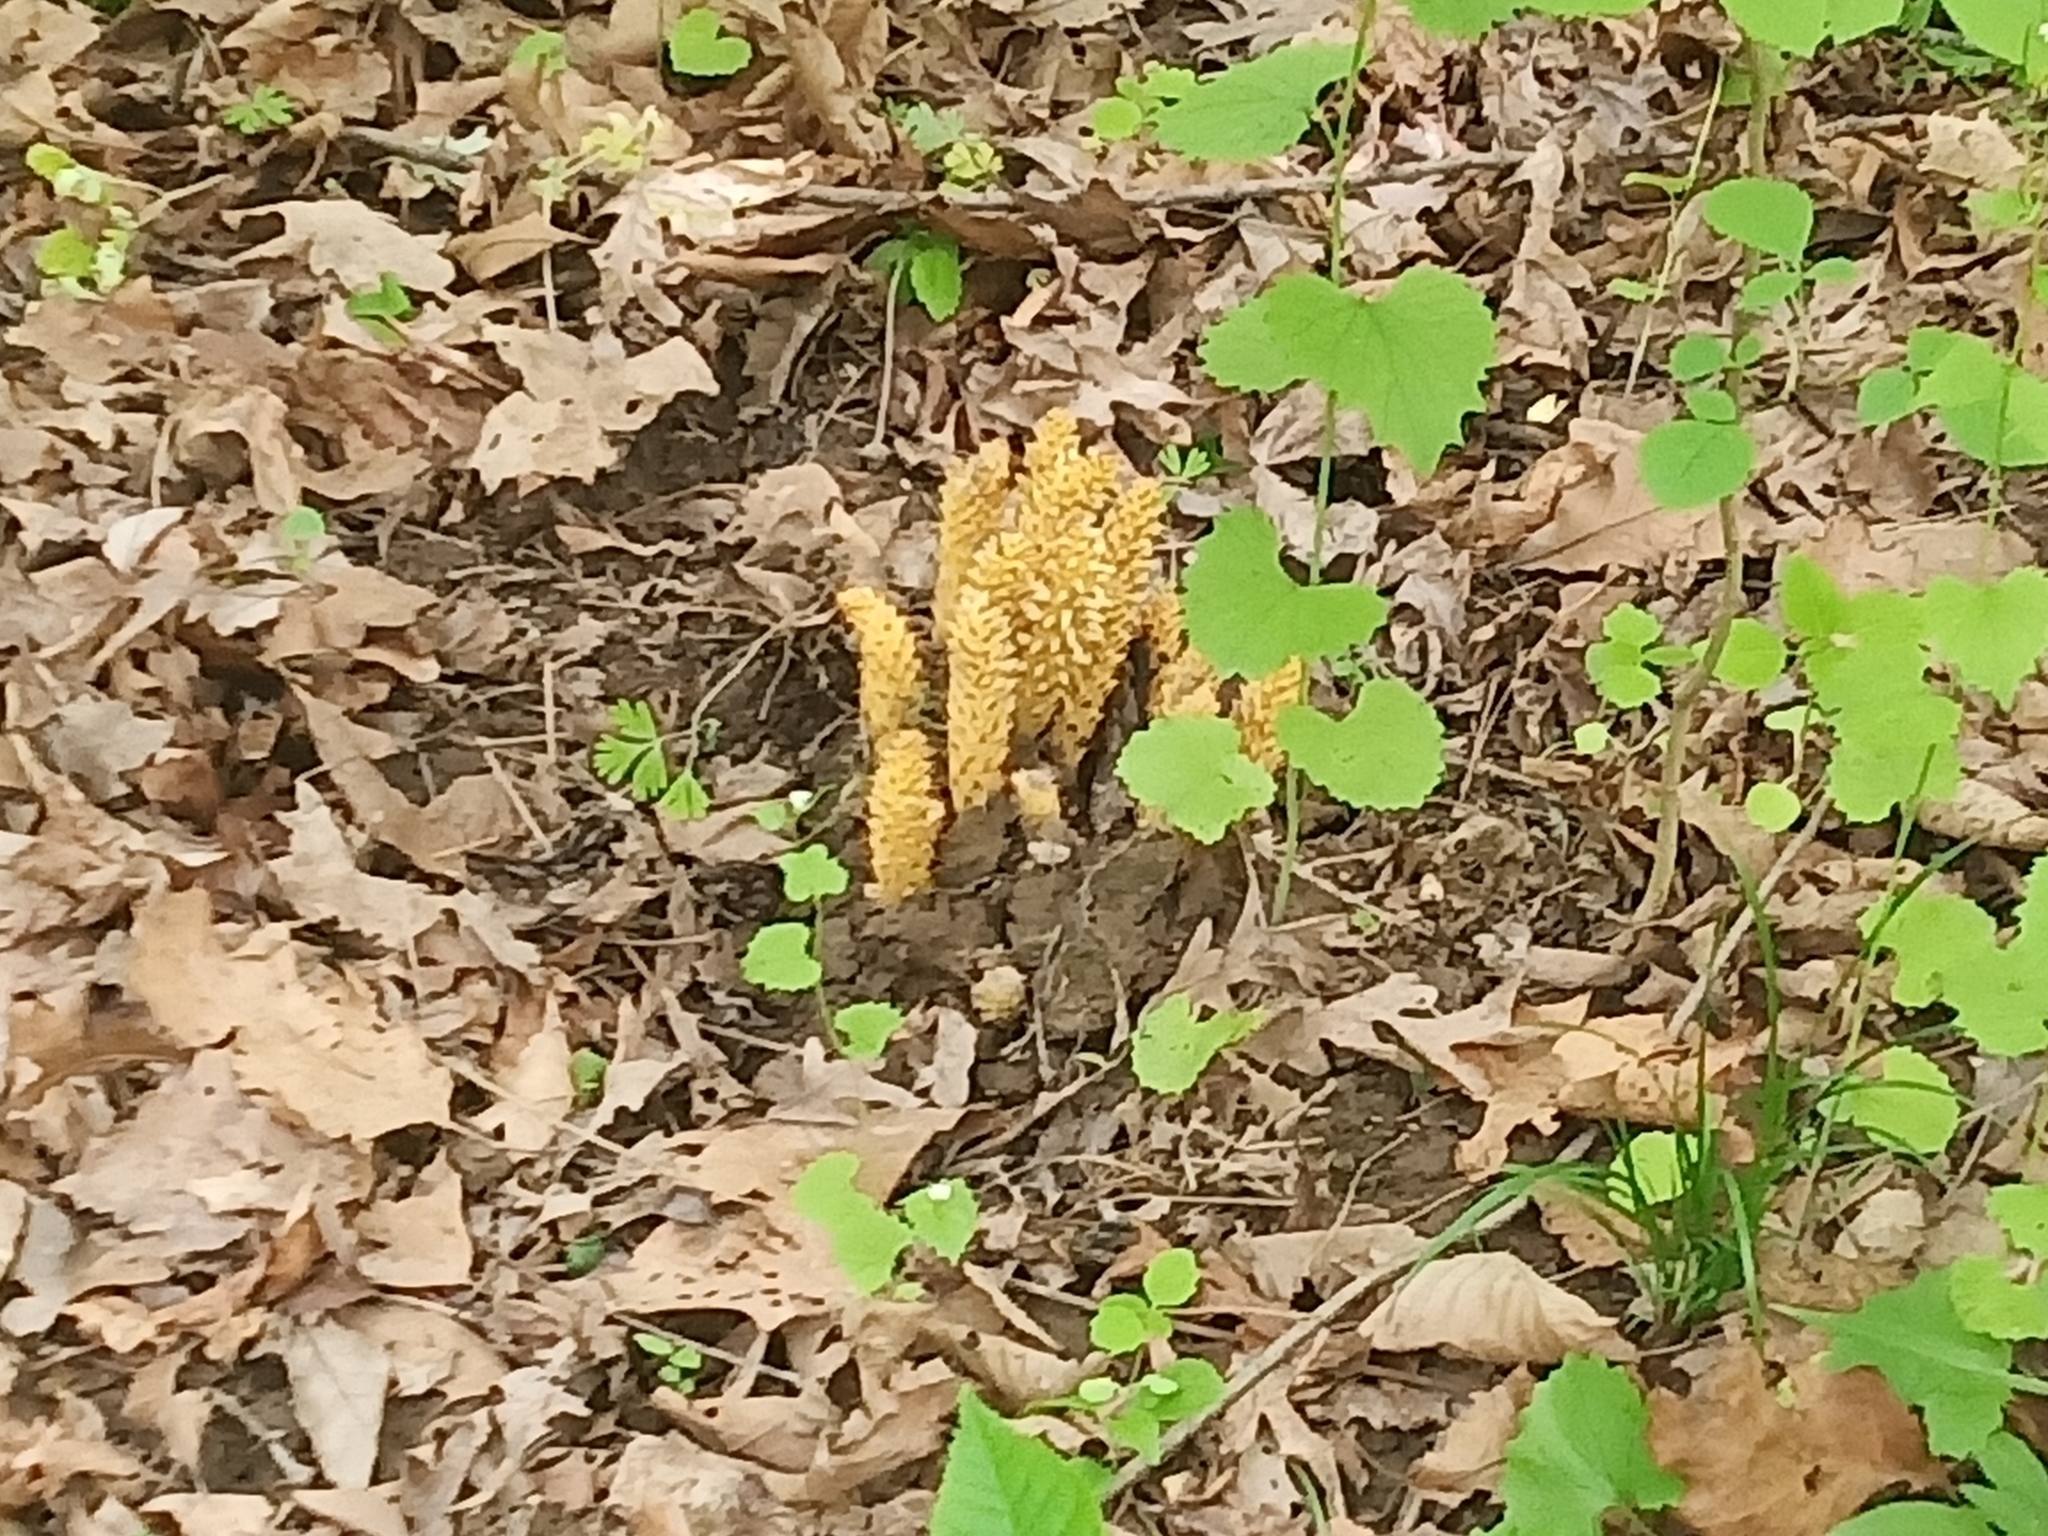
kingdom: Plantae
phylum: Tracheophyta
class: Magnoliopsida
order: Lamiales
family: Orobanchaceae
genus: Conopholis
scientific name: Conopholis americana
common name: American cancer-root
